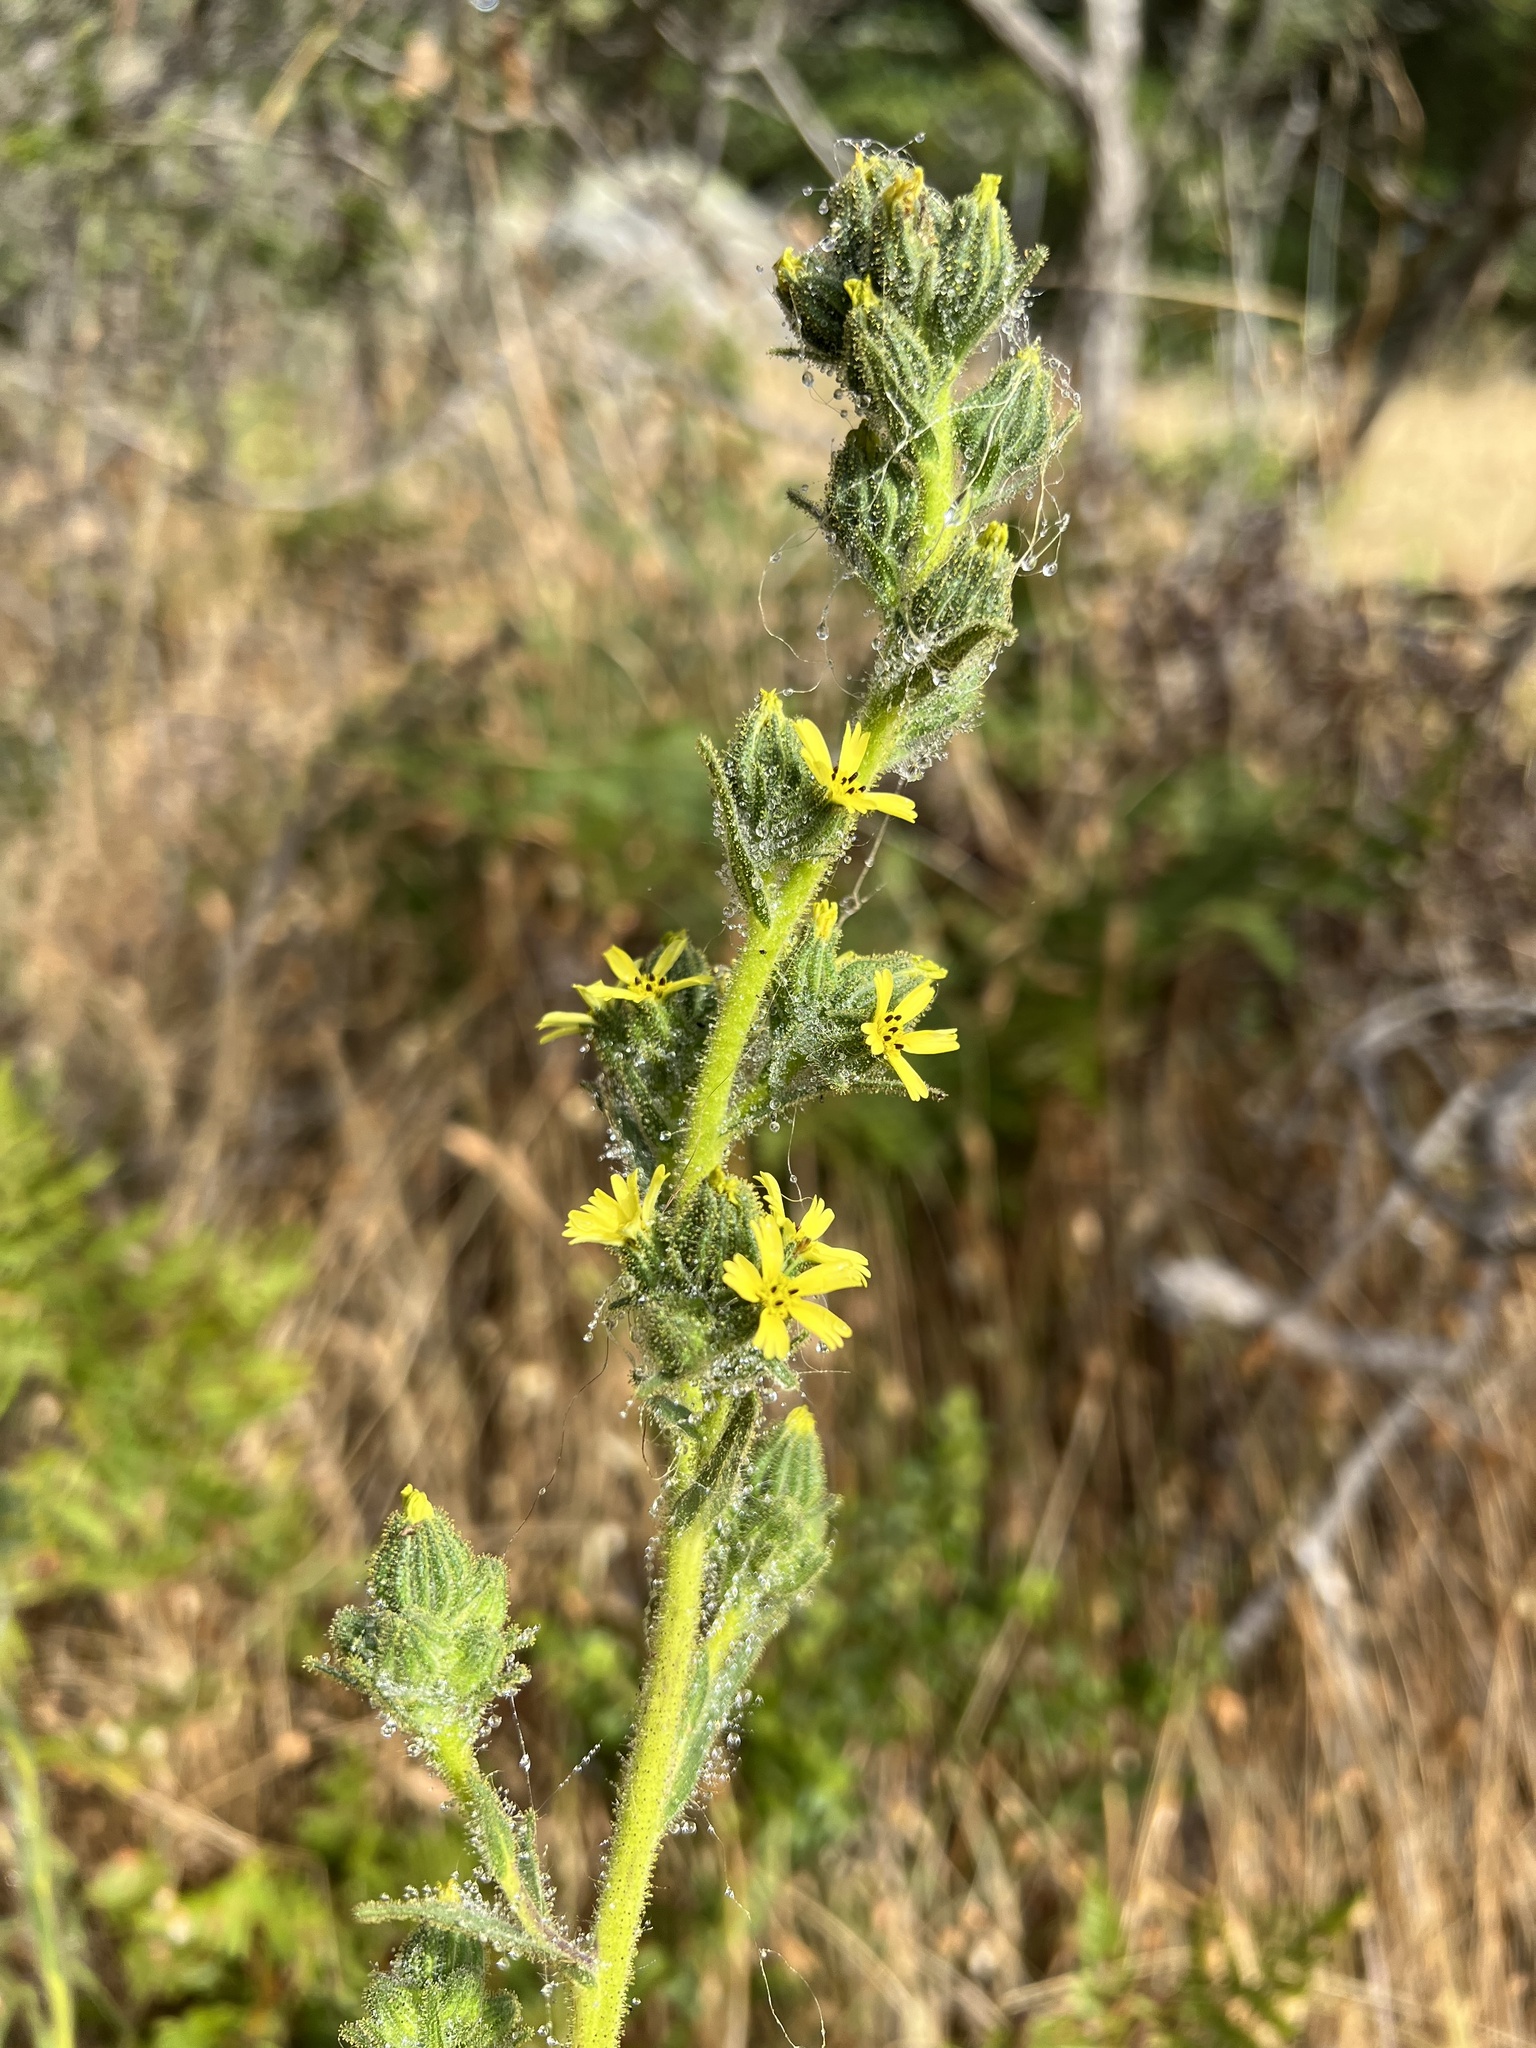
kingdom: Plantae
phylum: Tracheophyta
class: Magnoliopsida
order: Asterales
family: Asteraceae
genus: Madia
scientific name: Madia sativa
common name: Coast tarweed
